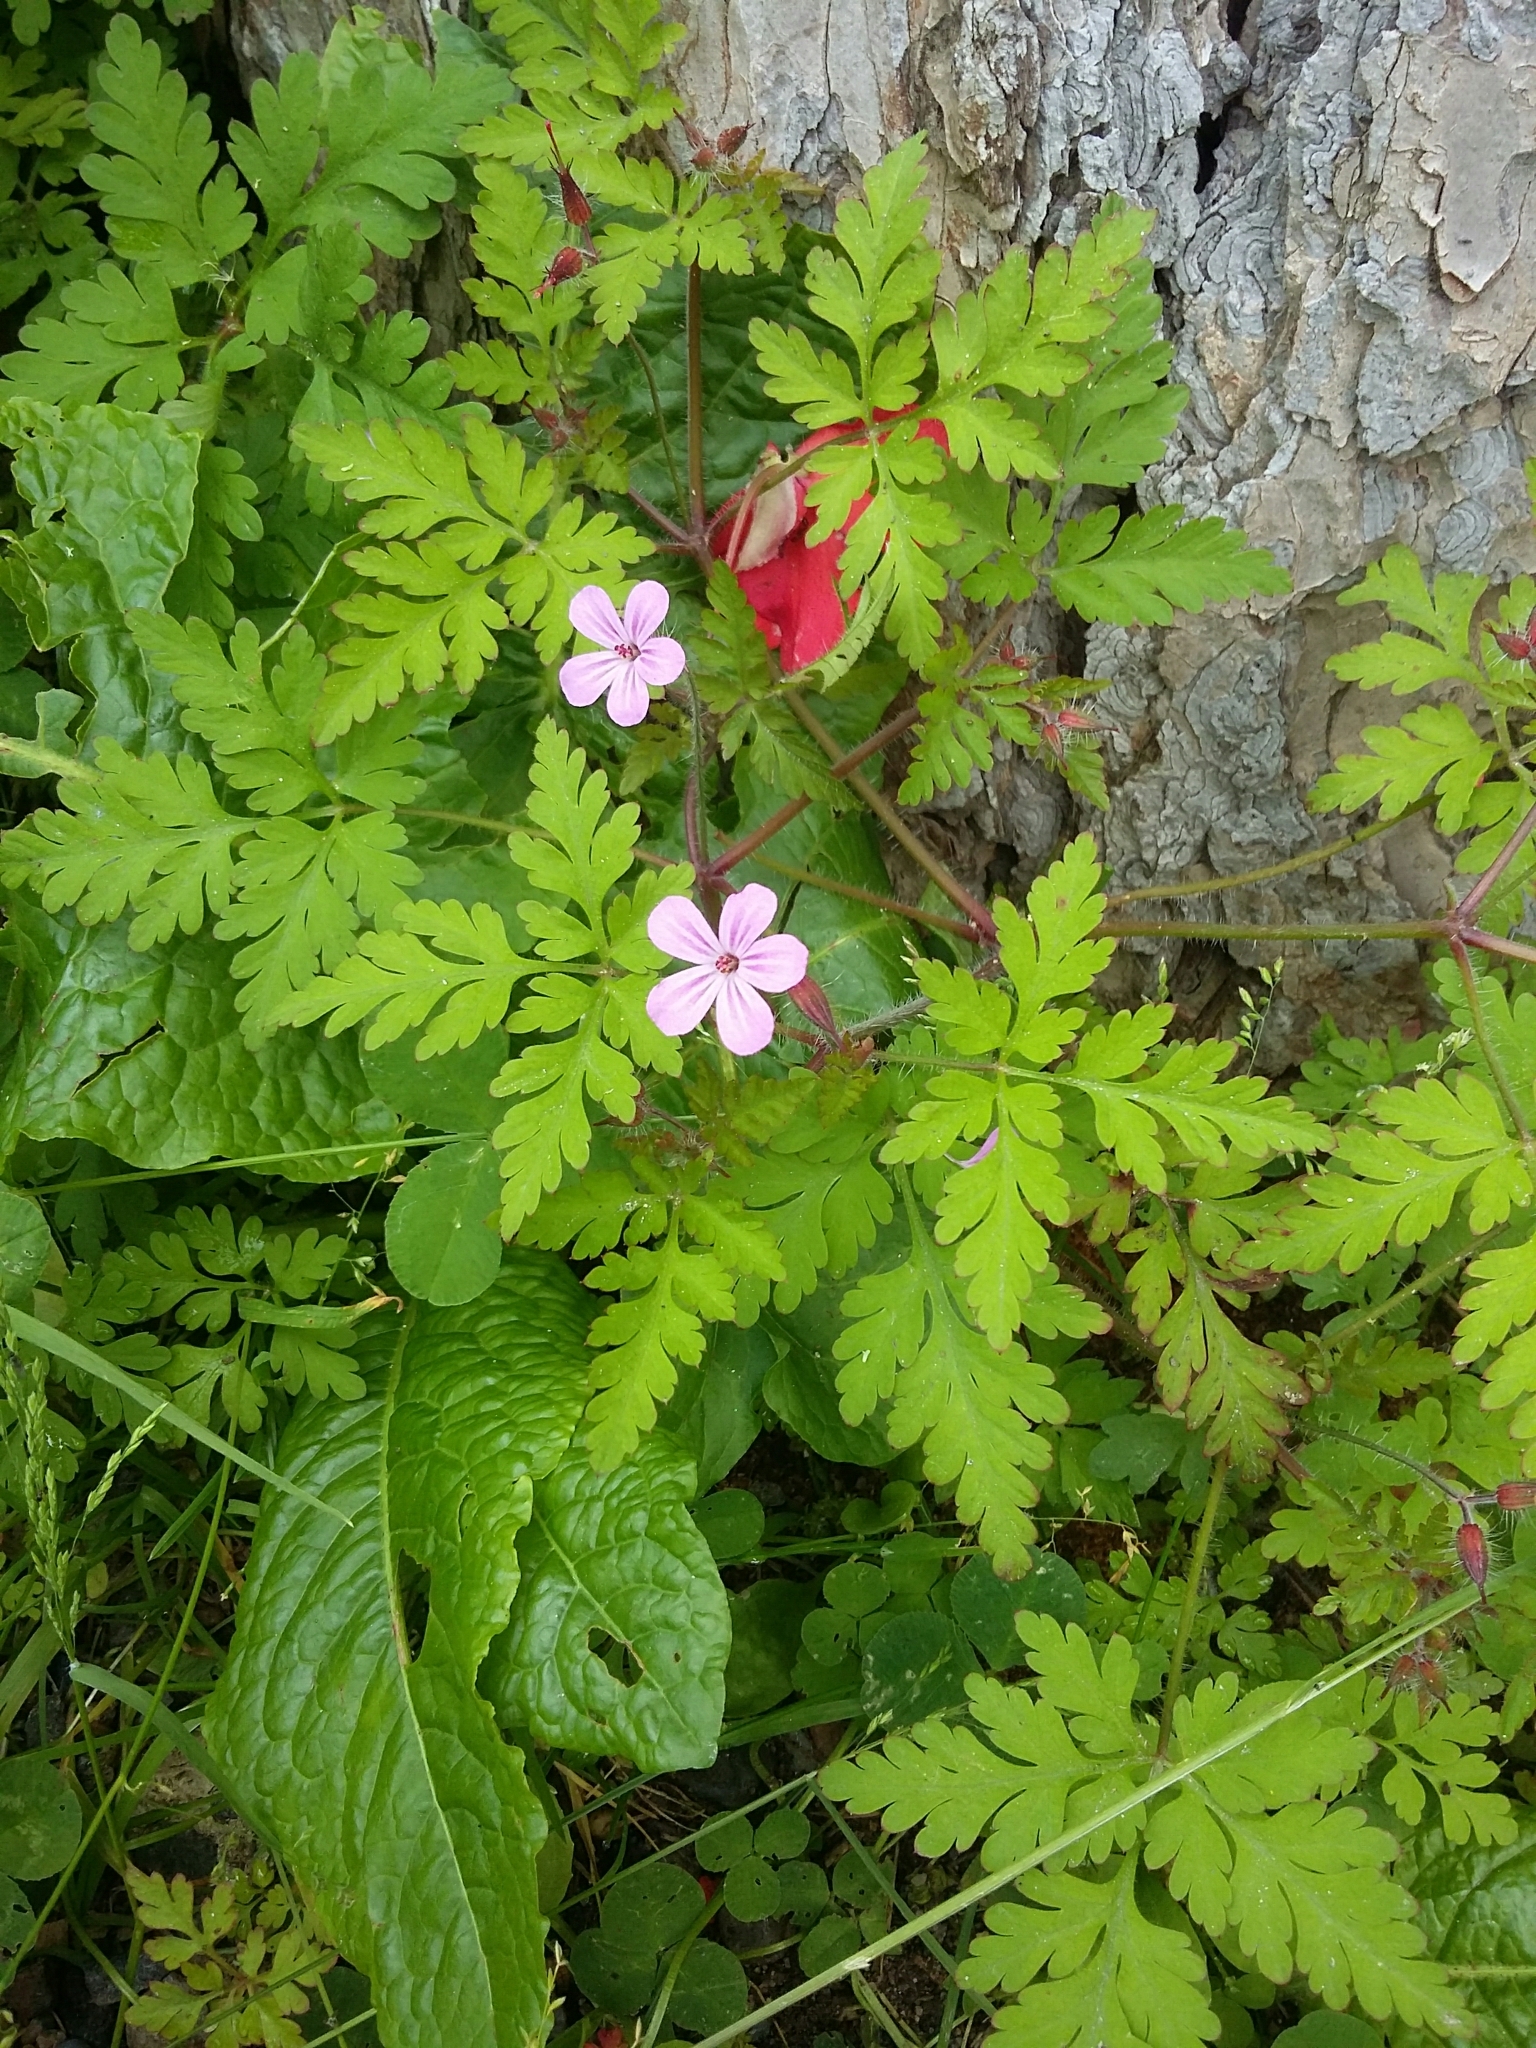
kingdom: Plantae
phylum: Tracheophyta
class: Magnoliopsida
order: Geraniales
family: Geraniaceae
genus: Geranium
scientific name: Geranium robertianum
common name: Herb-robert
